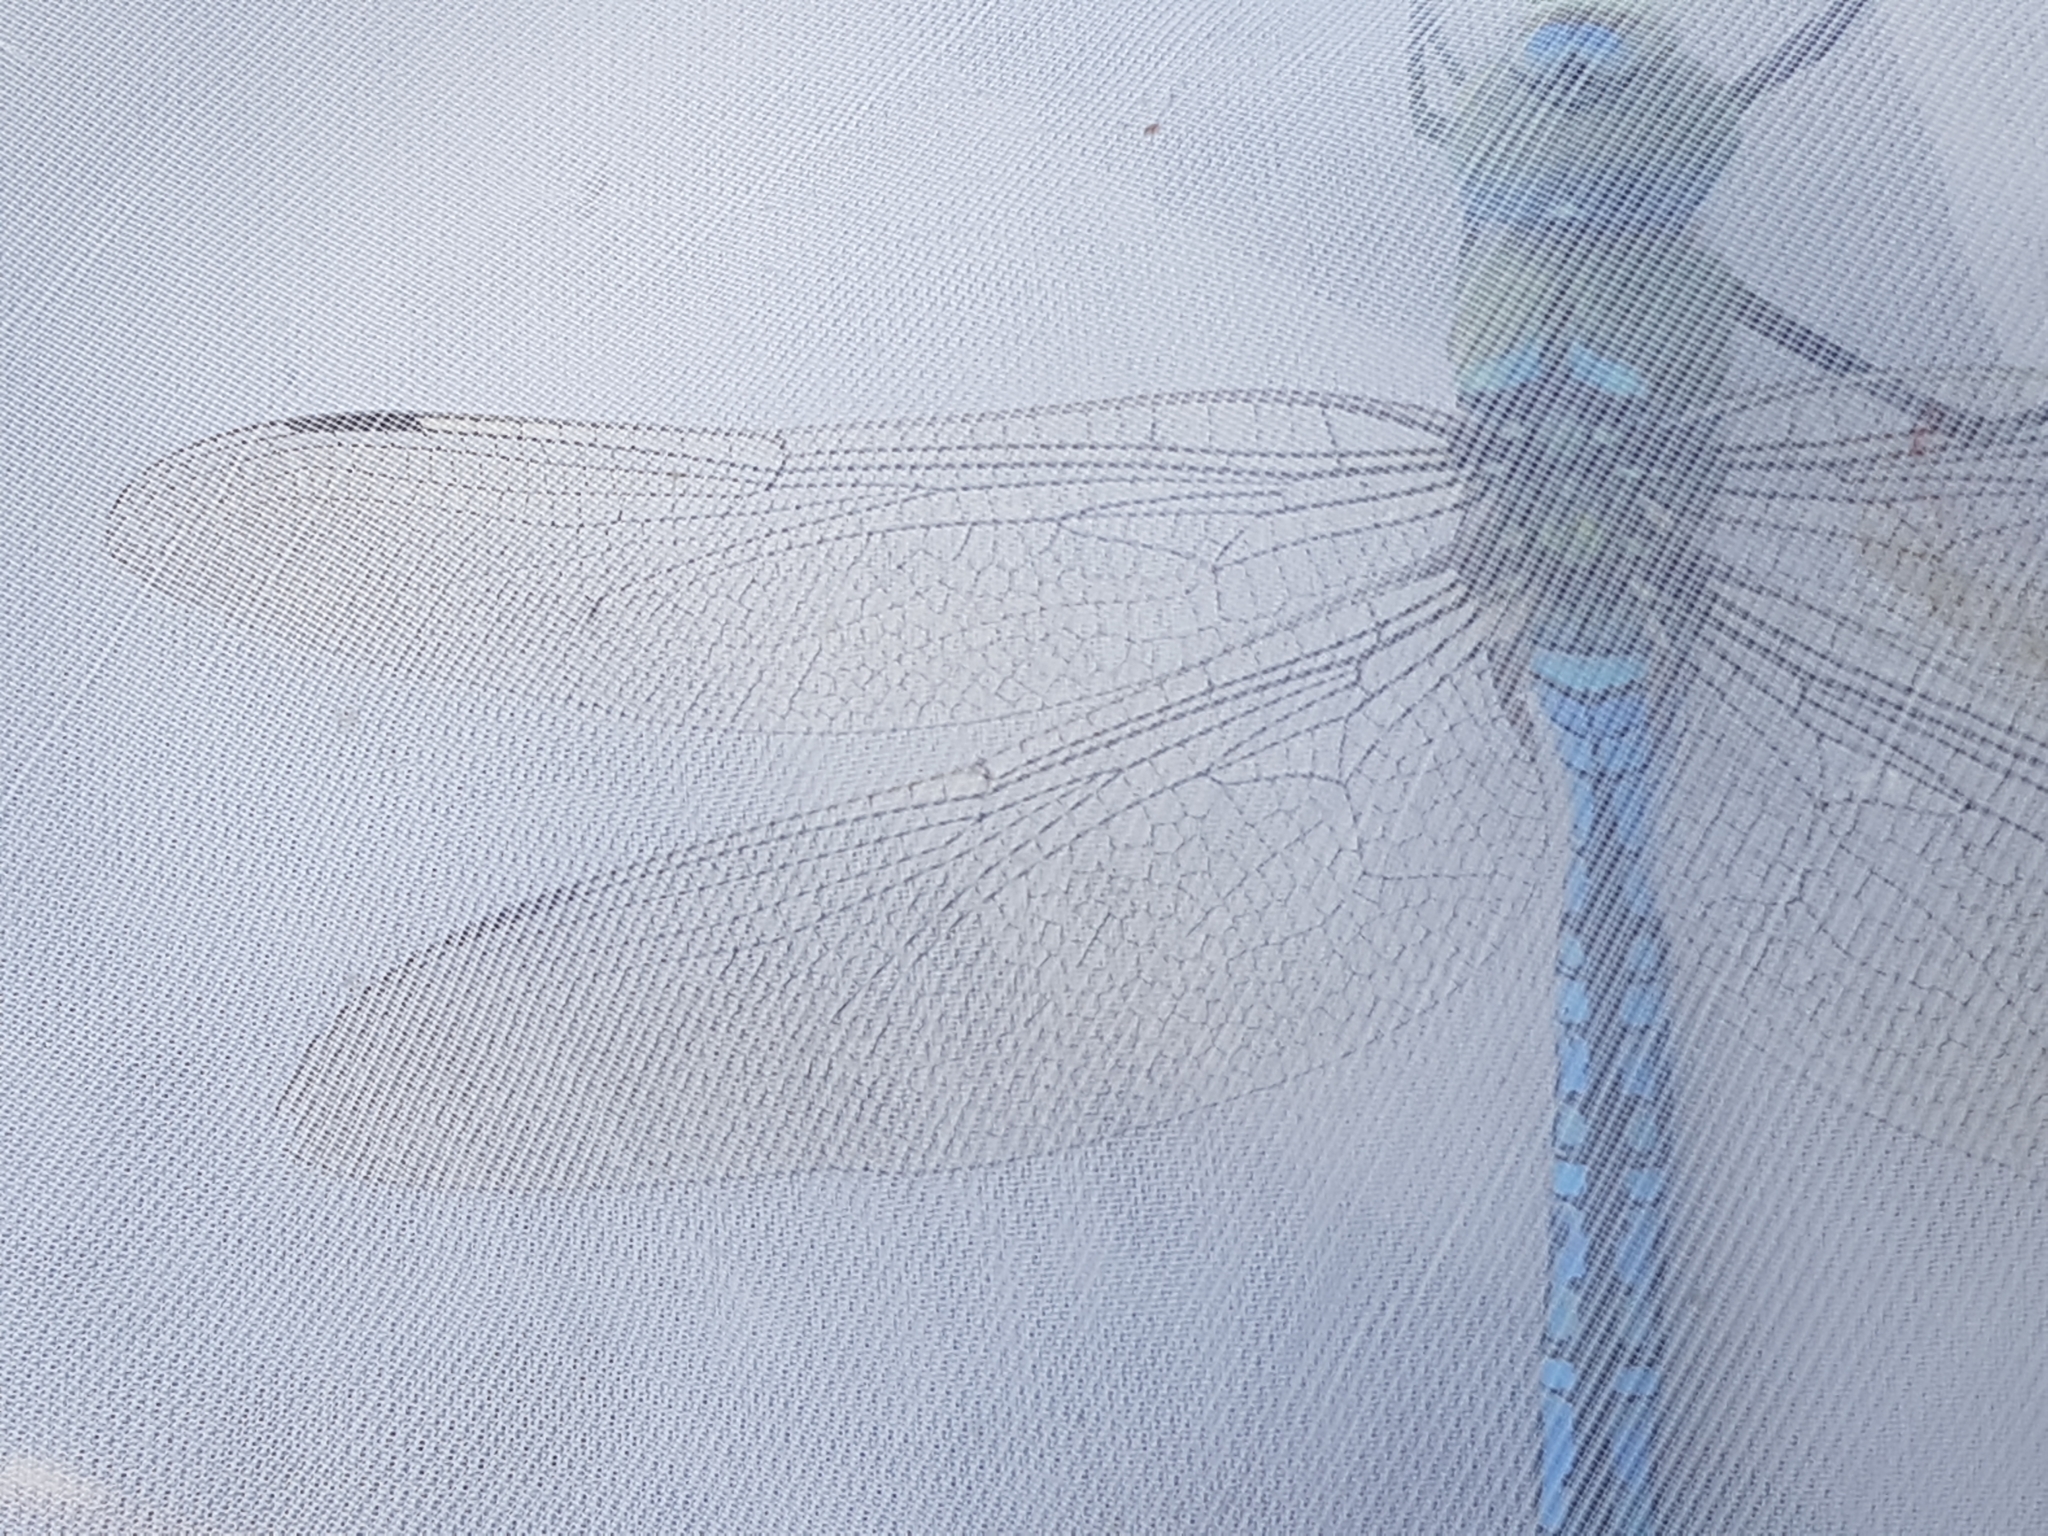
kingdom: Animalia
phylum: Arthropoda
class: Insecta
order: Odonata
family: Aeshnidae
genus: Anax
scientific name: Anax imperator
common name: Emperor dragonfly
